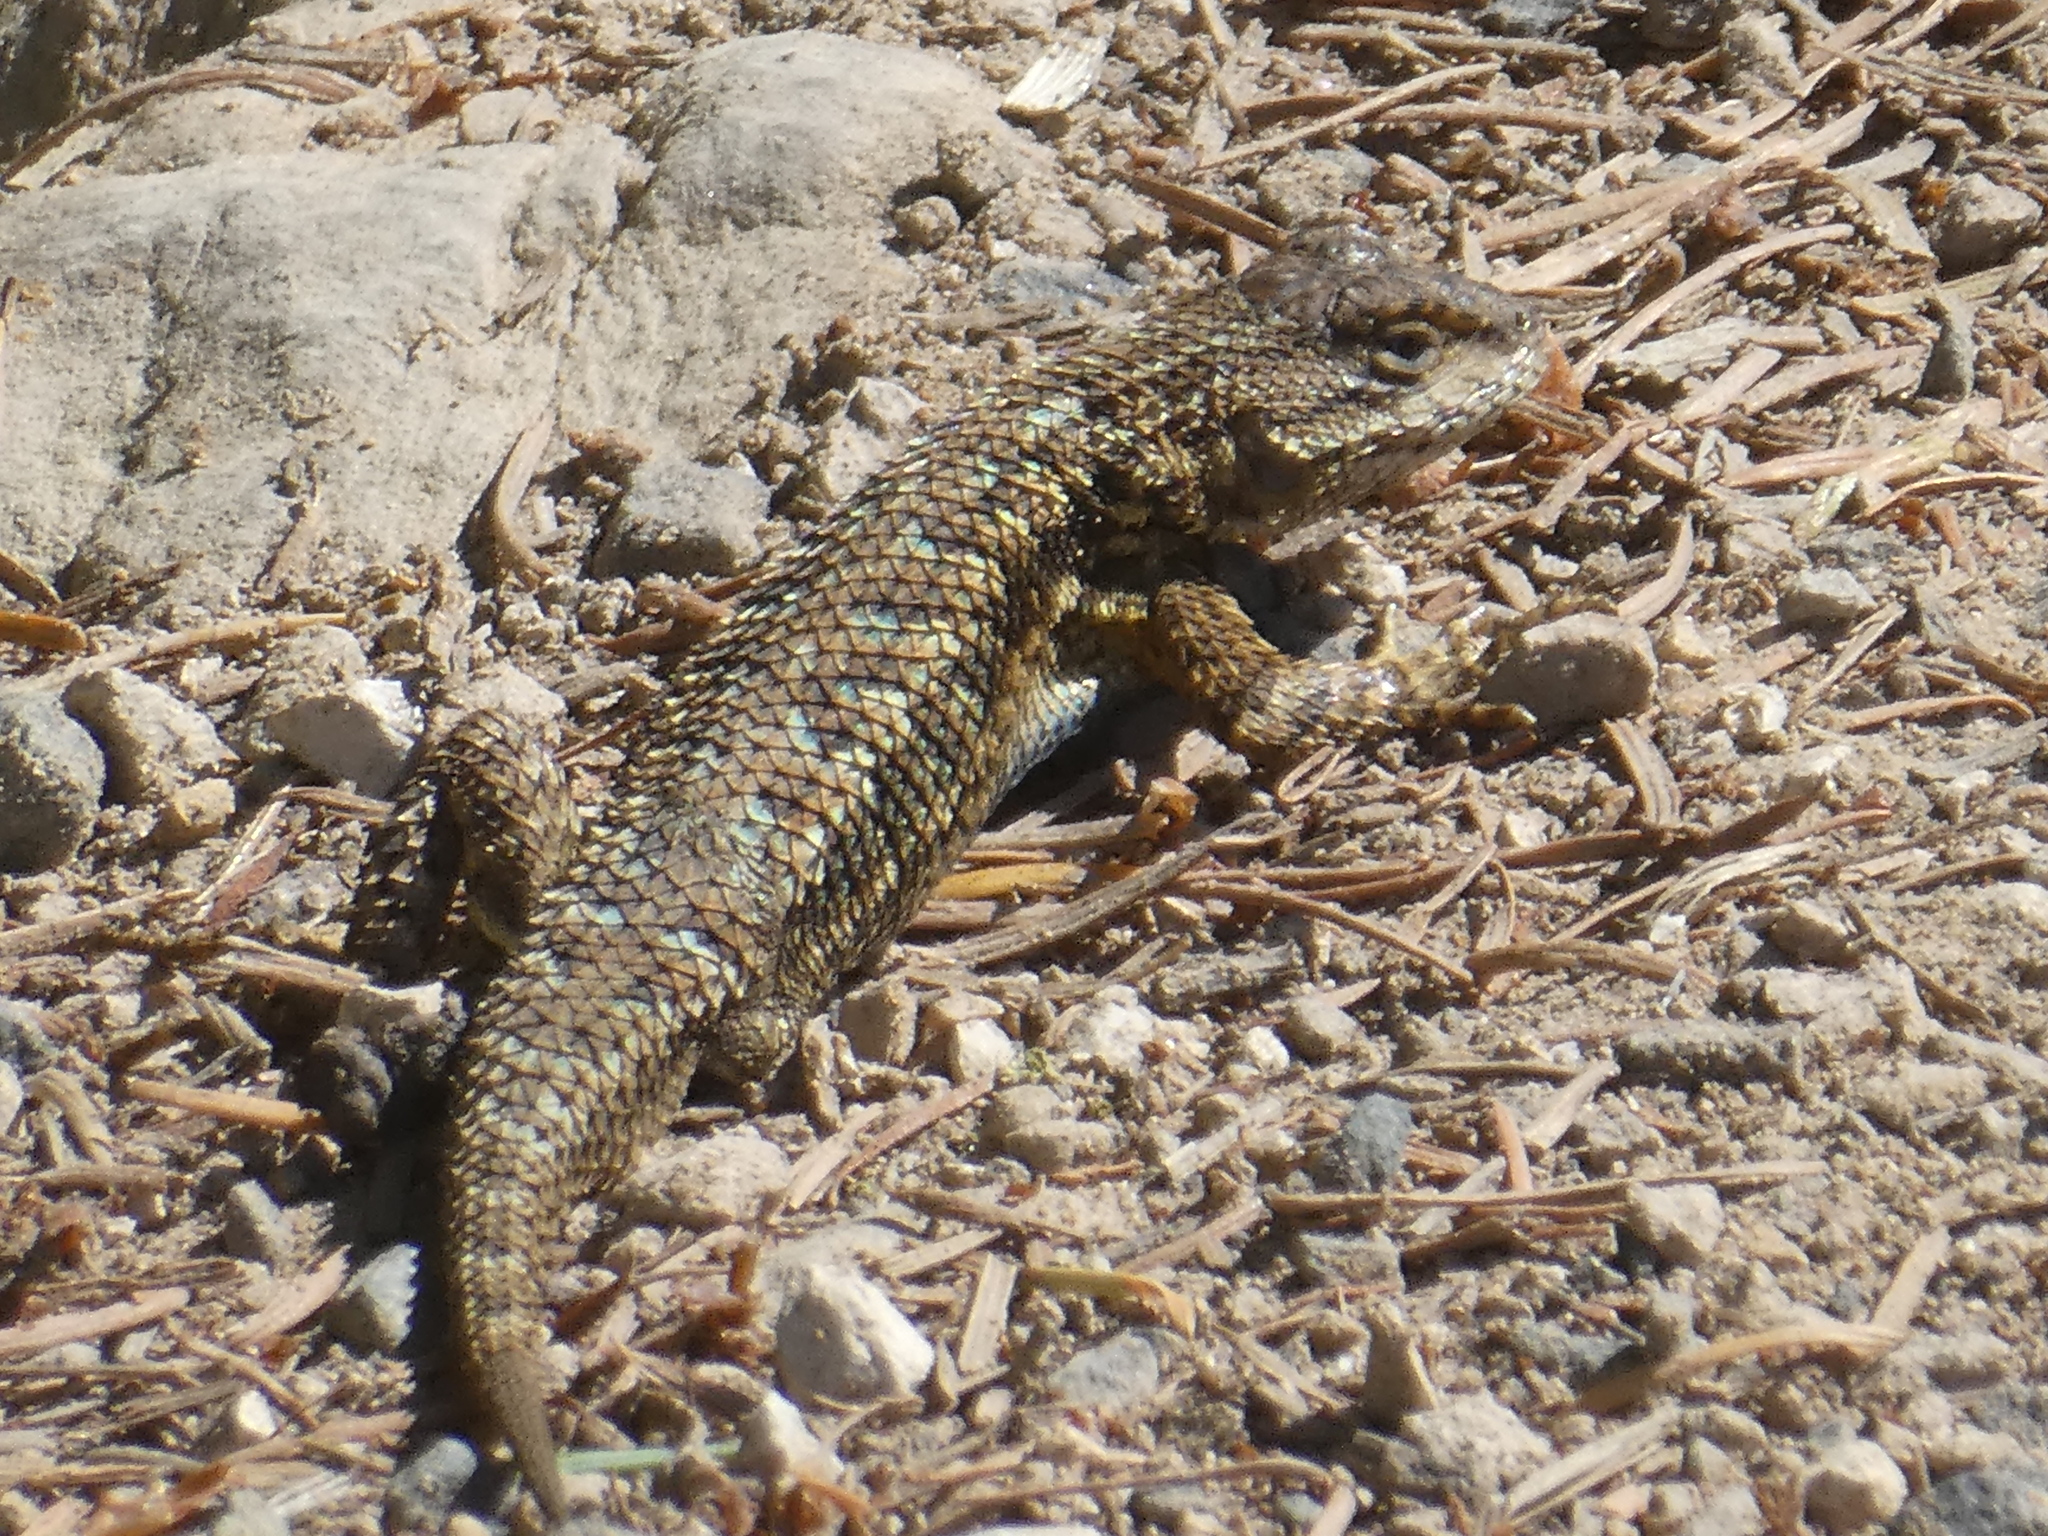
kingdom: Animalia
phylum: Chordata
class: Squamata
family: Phrynosomatidae
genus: Sceloporus
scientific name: Sceloporus occidentalis
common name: Western fence lizard
